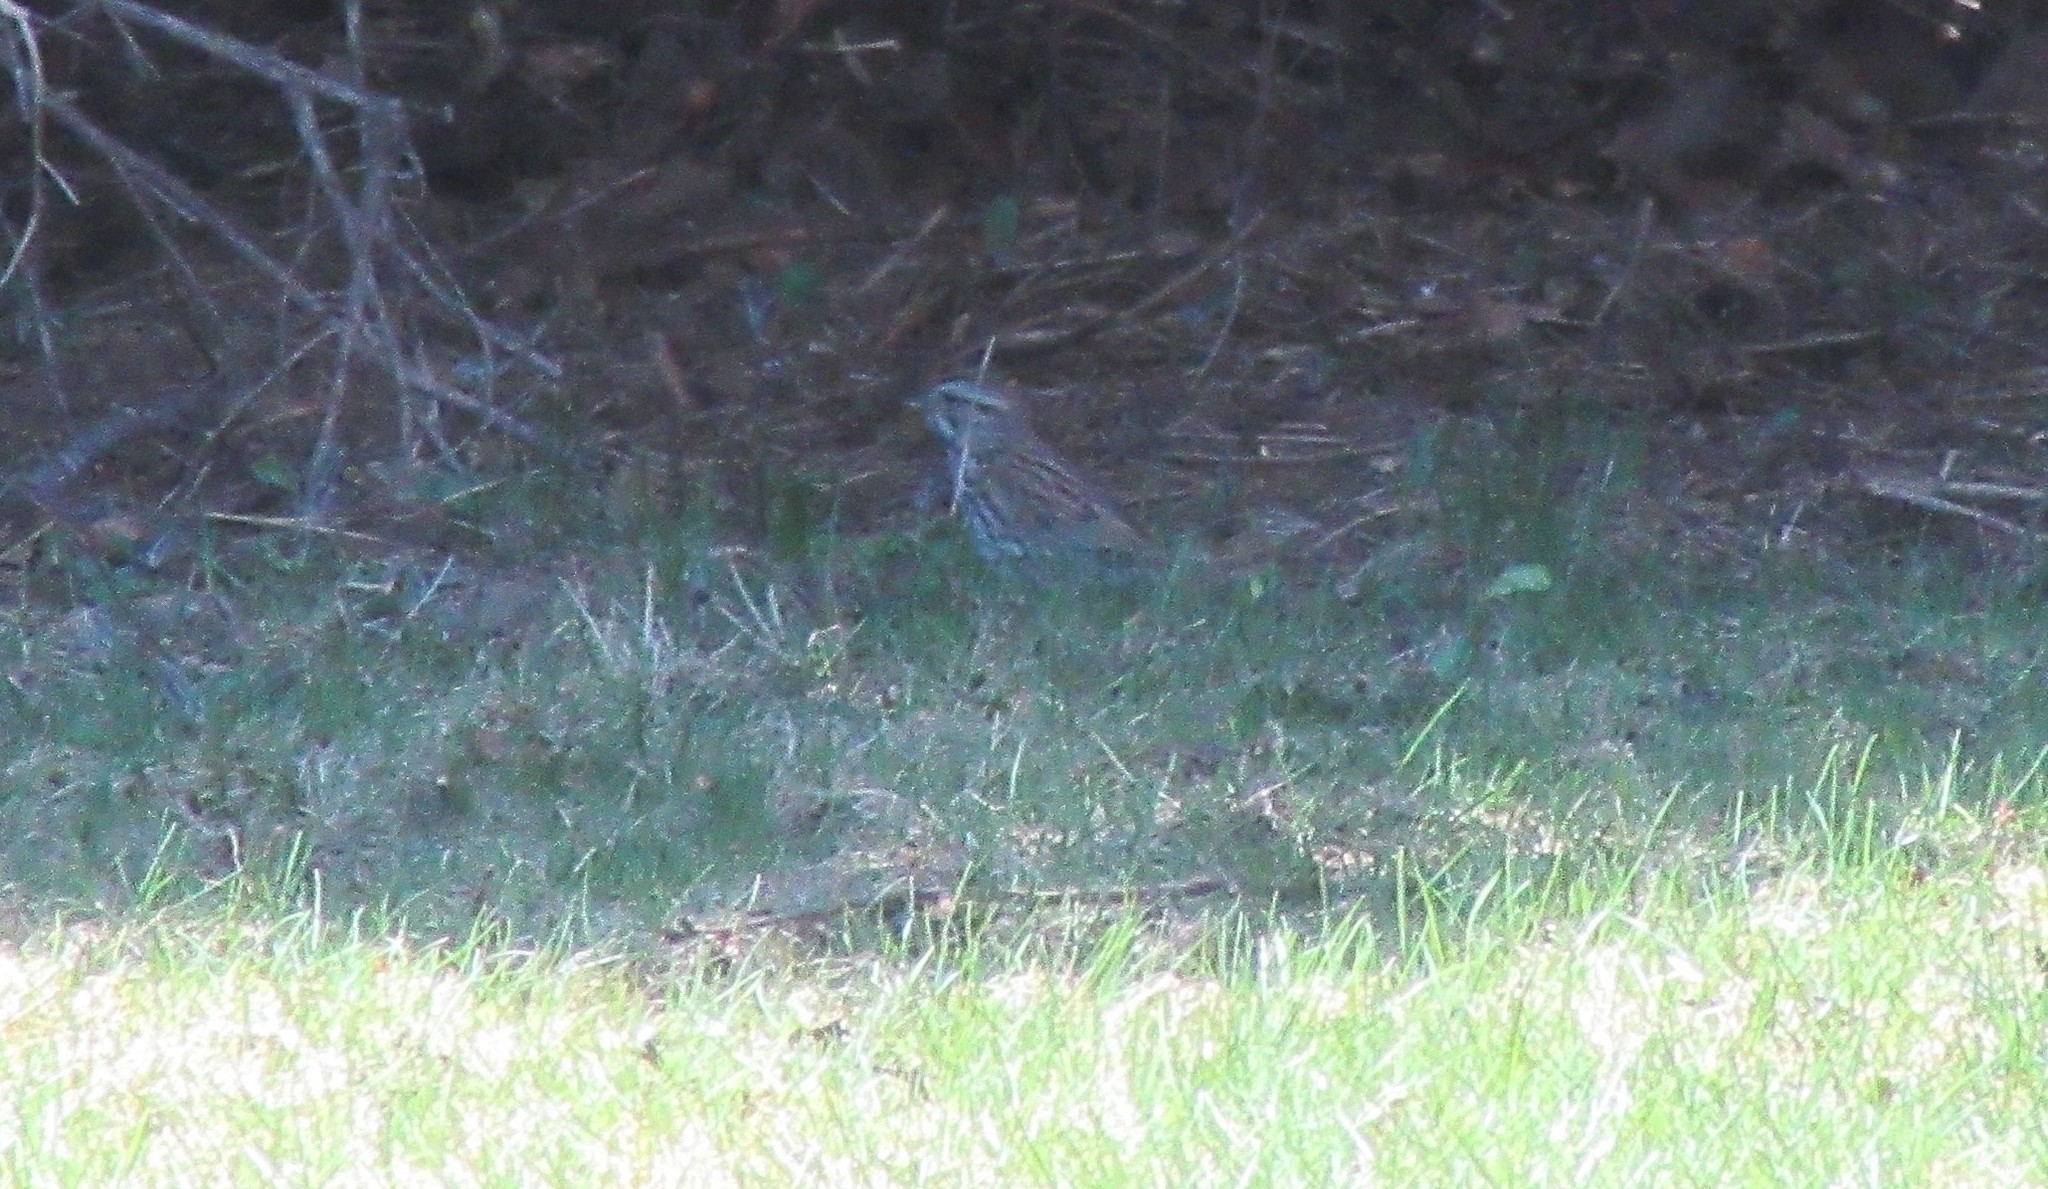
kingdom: Animalia
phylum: Chordata
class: Aves
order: Passeriformes
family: Passerellidae
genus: Melospiza
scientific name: Melospiza melodia
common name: Song sparrow
